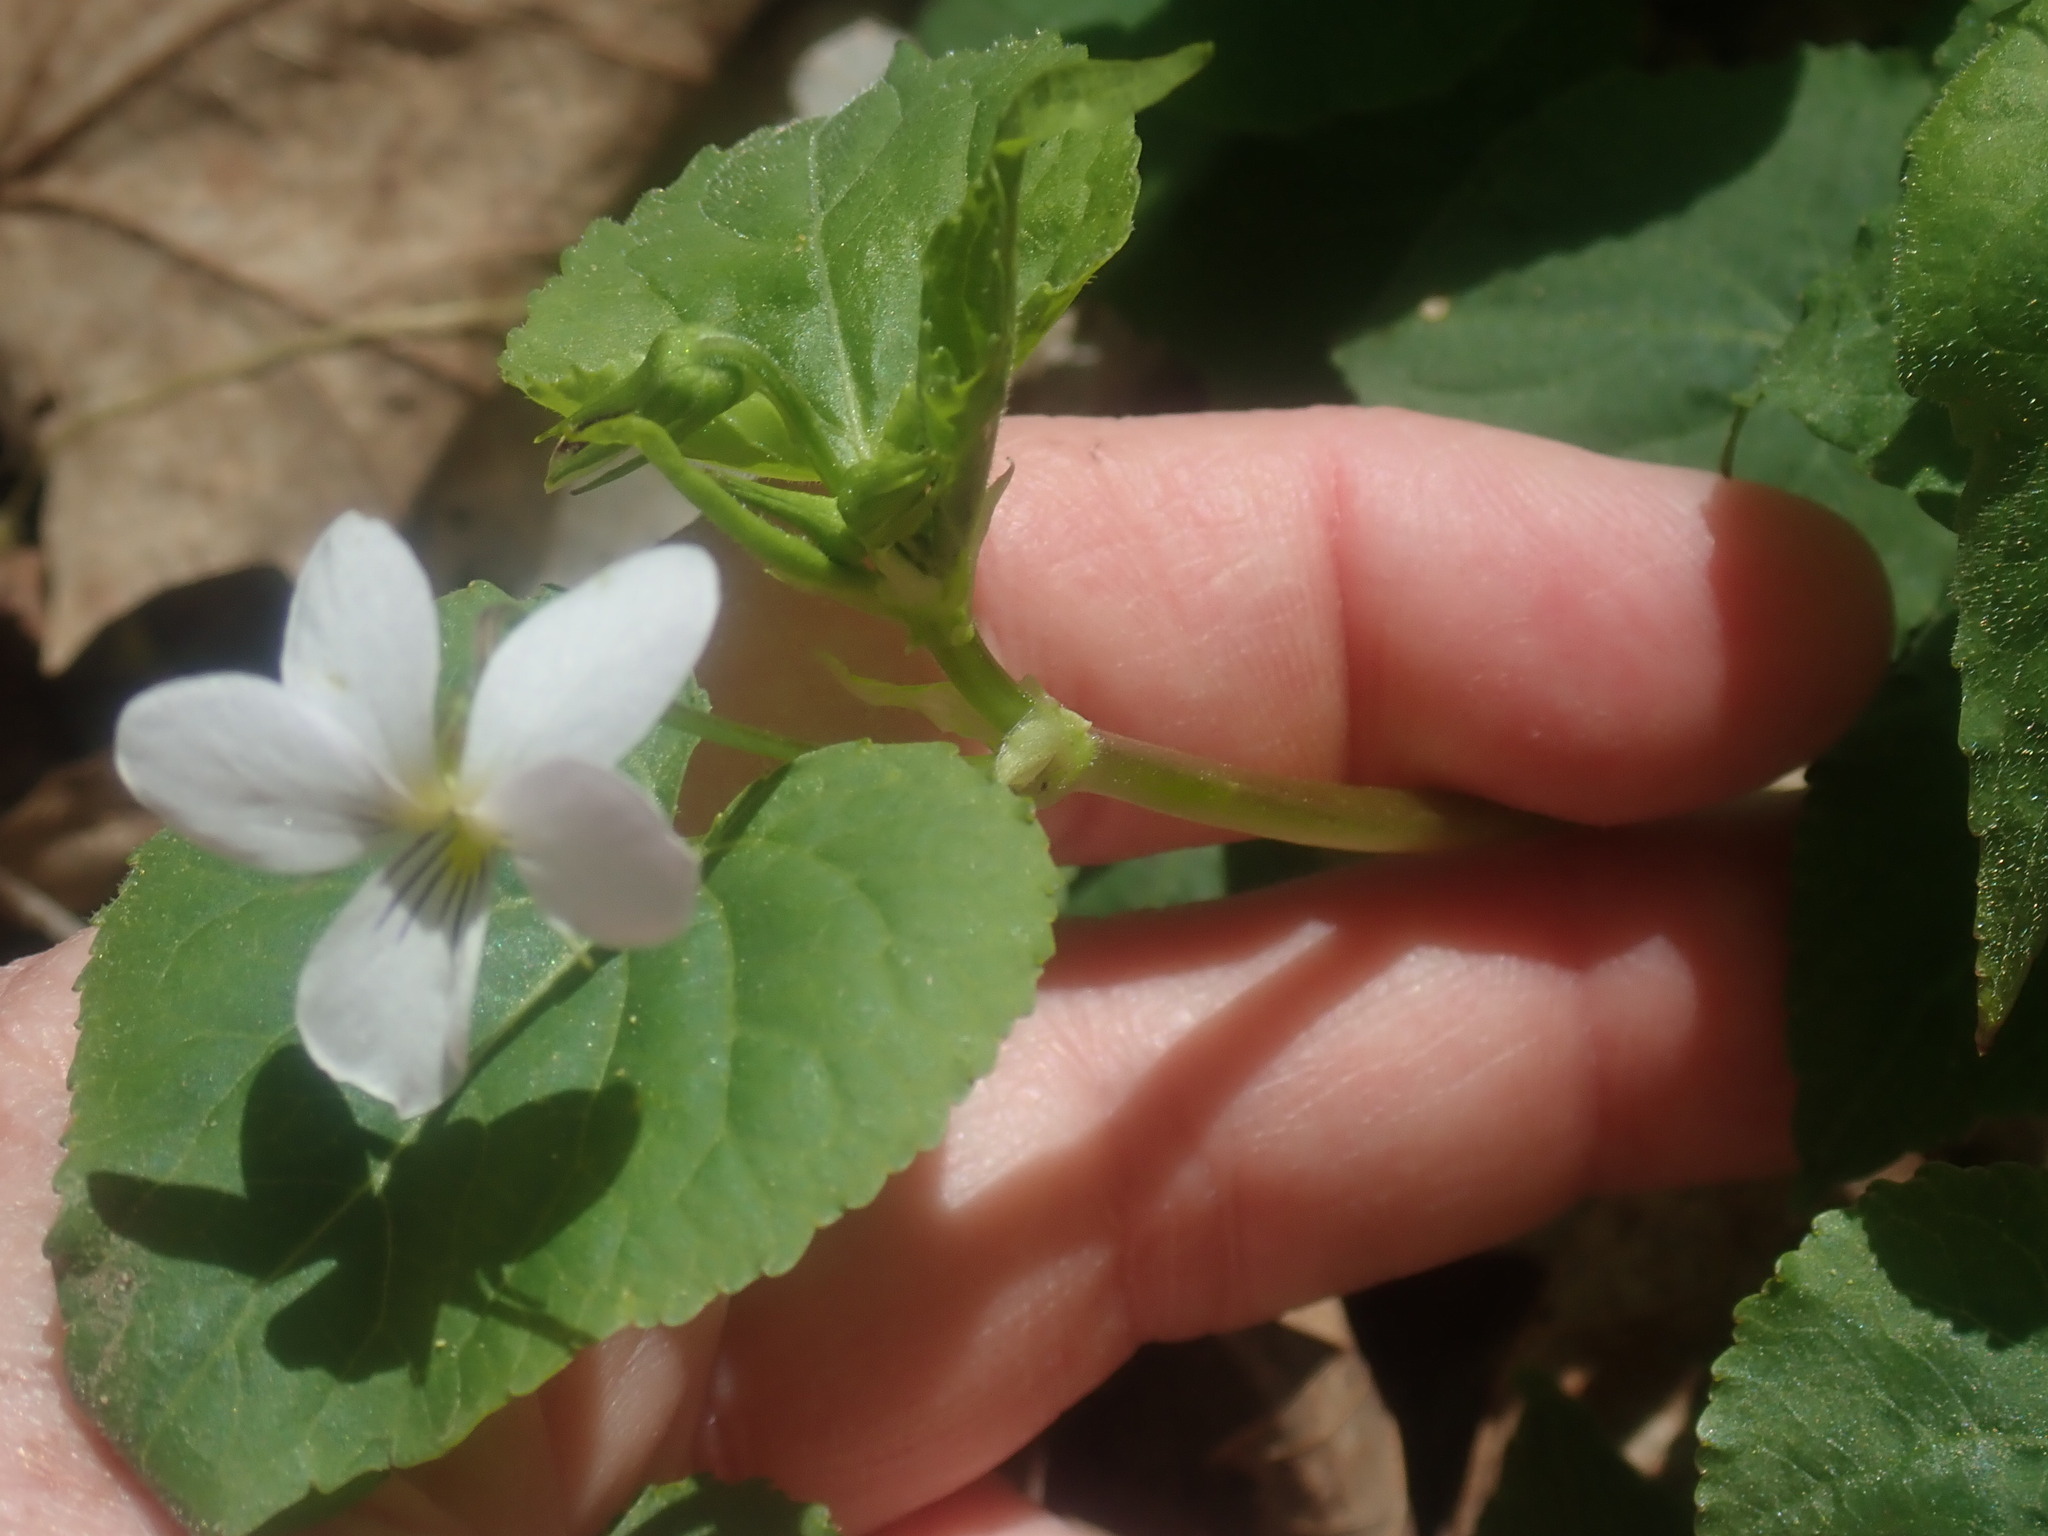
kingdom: Plantae
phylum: Tracheophyta
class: Magnoliopsida
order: Malpighiales
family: Violaceae
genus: Viola
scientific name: Viola canadensis
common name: Canada violet
